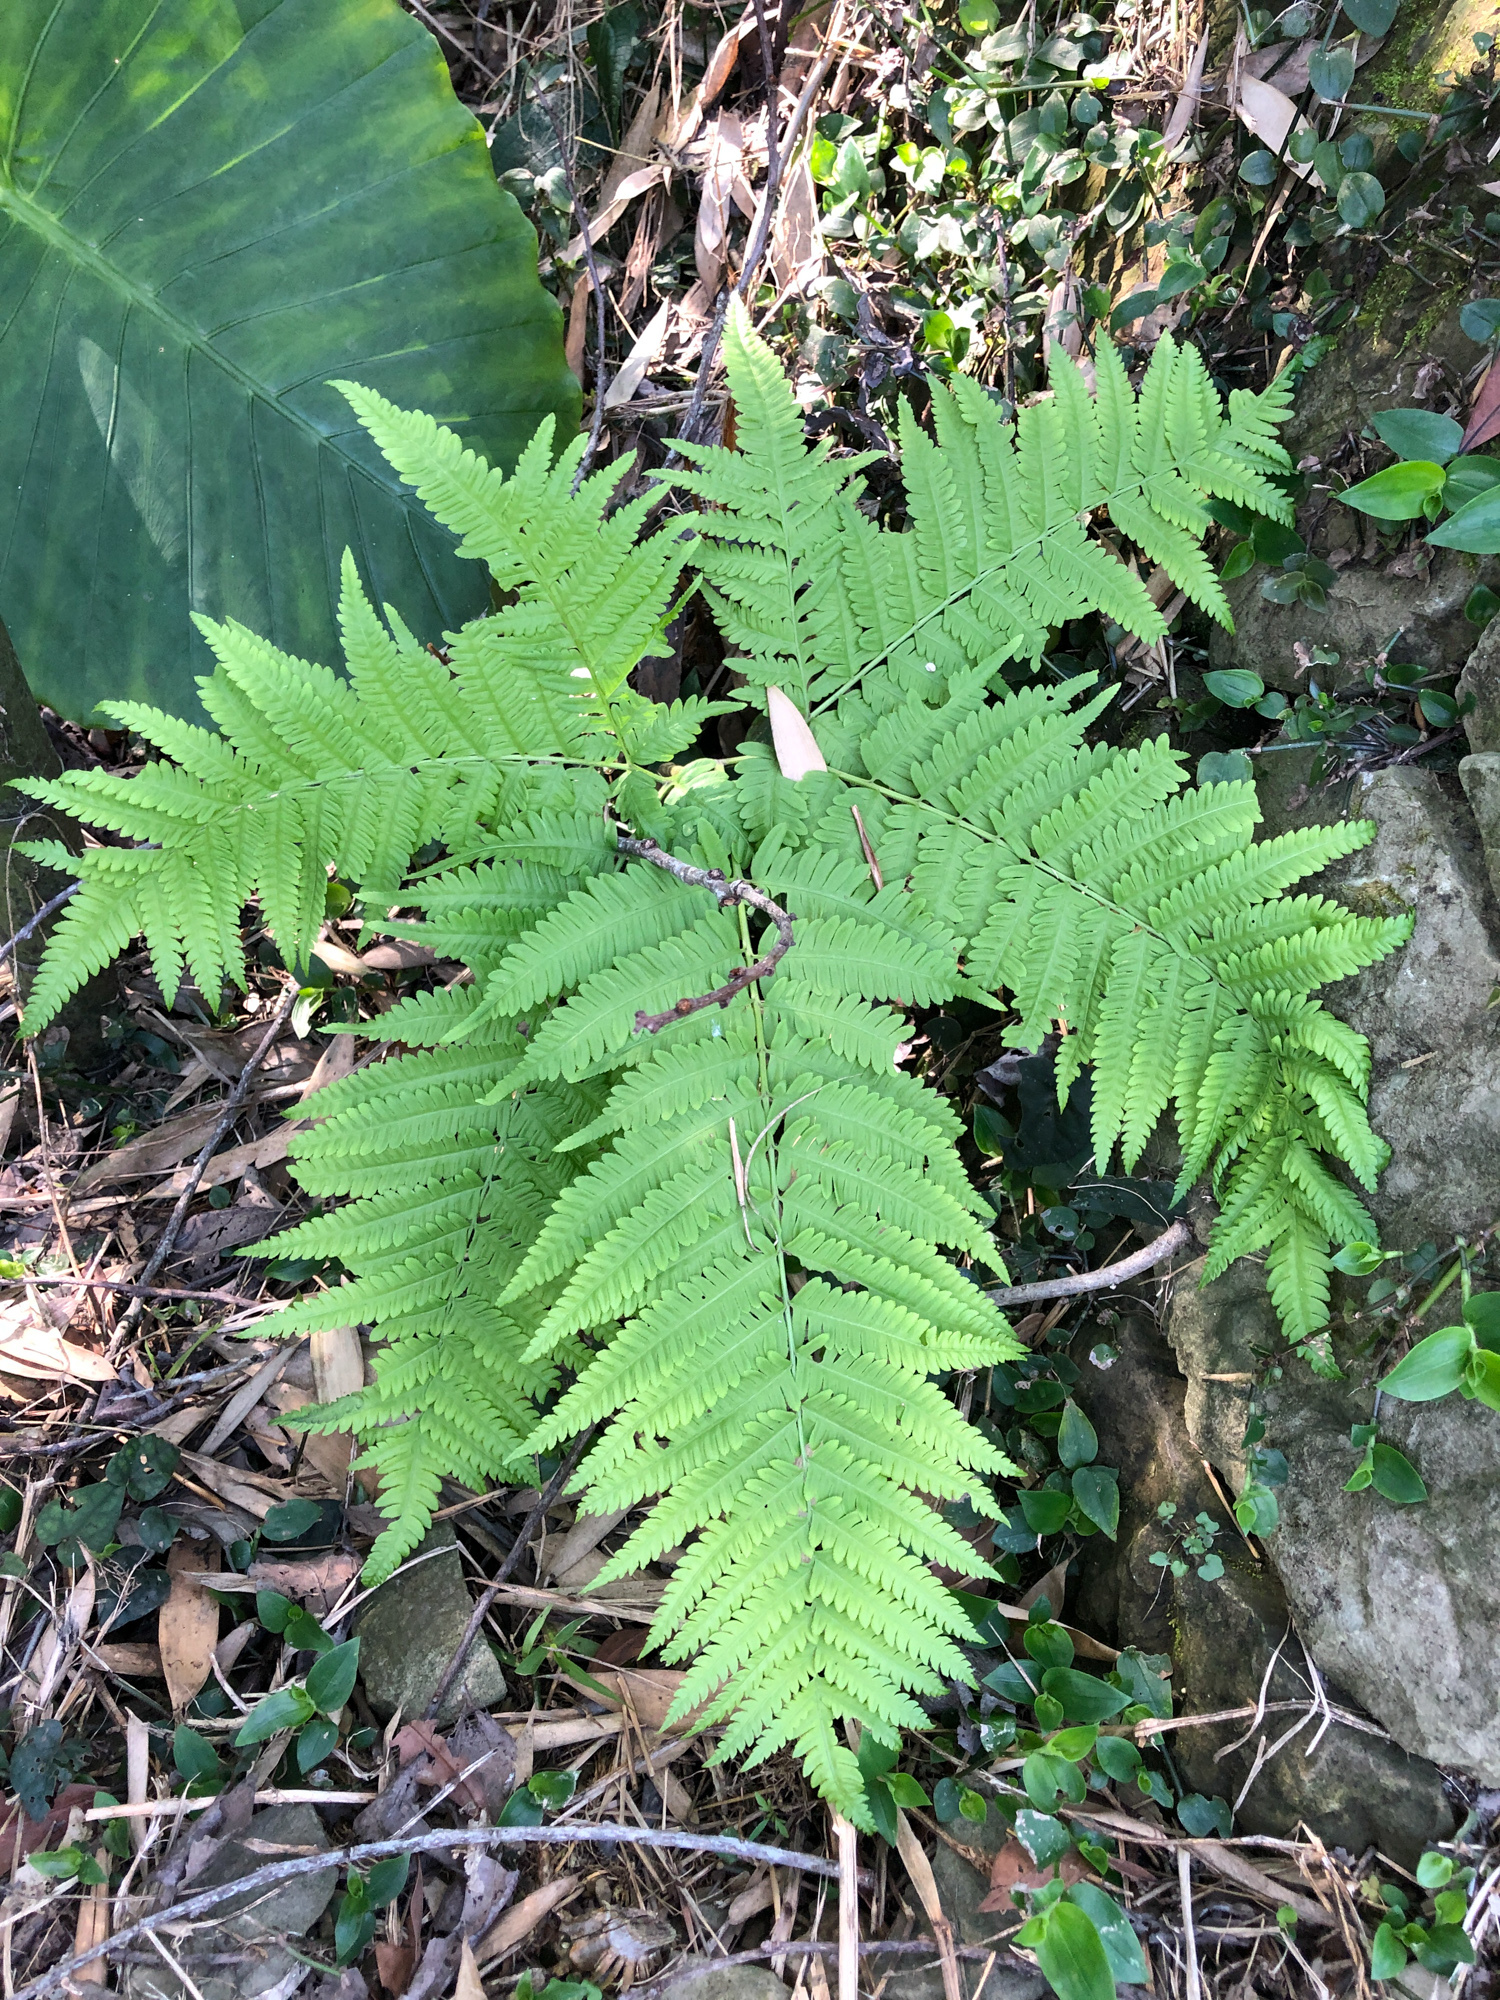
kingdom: Plantae
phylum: Tracheophyta
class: Polypodiopsida
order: Polypodiales
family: Pteridaceae
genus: Pteris
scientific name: Pteris wallichiana
